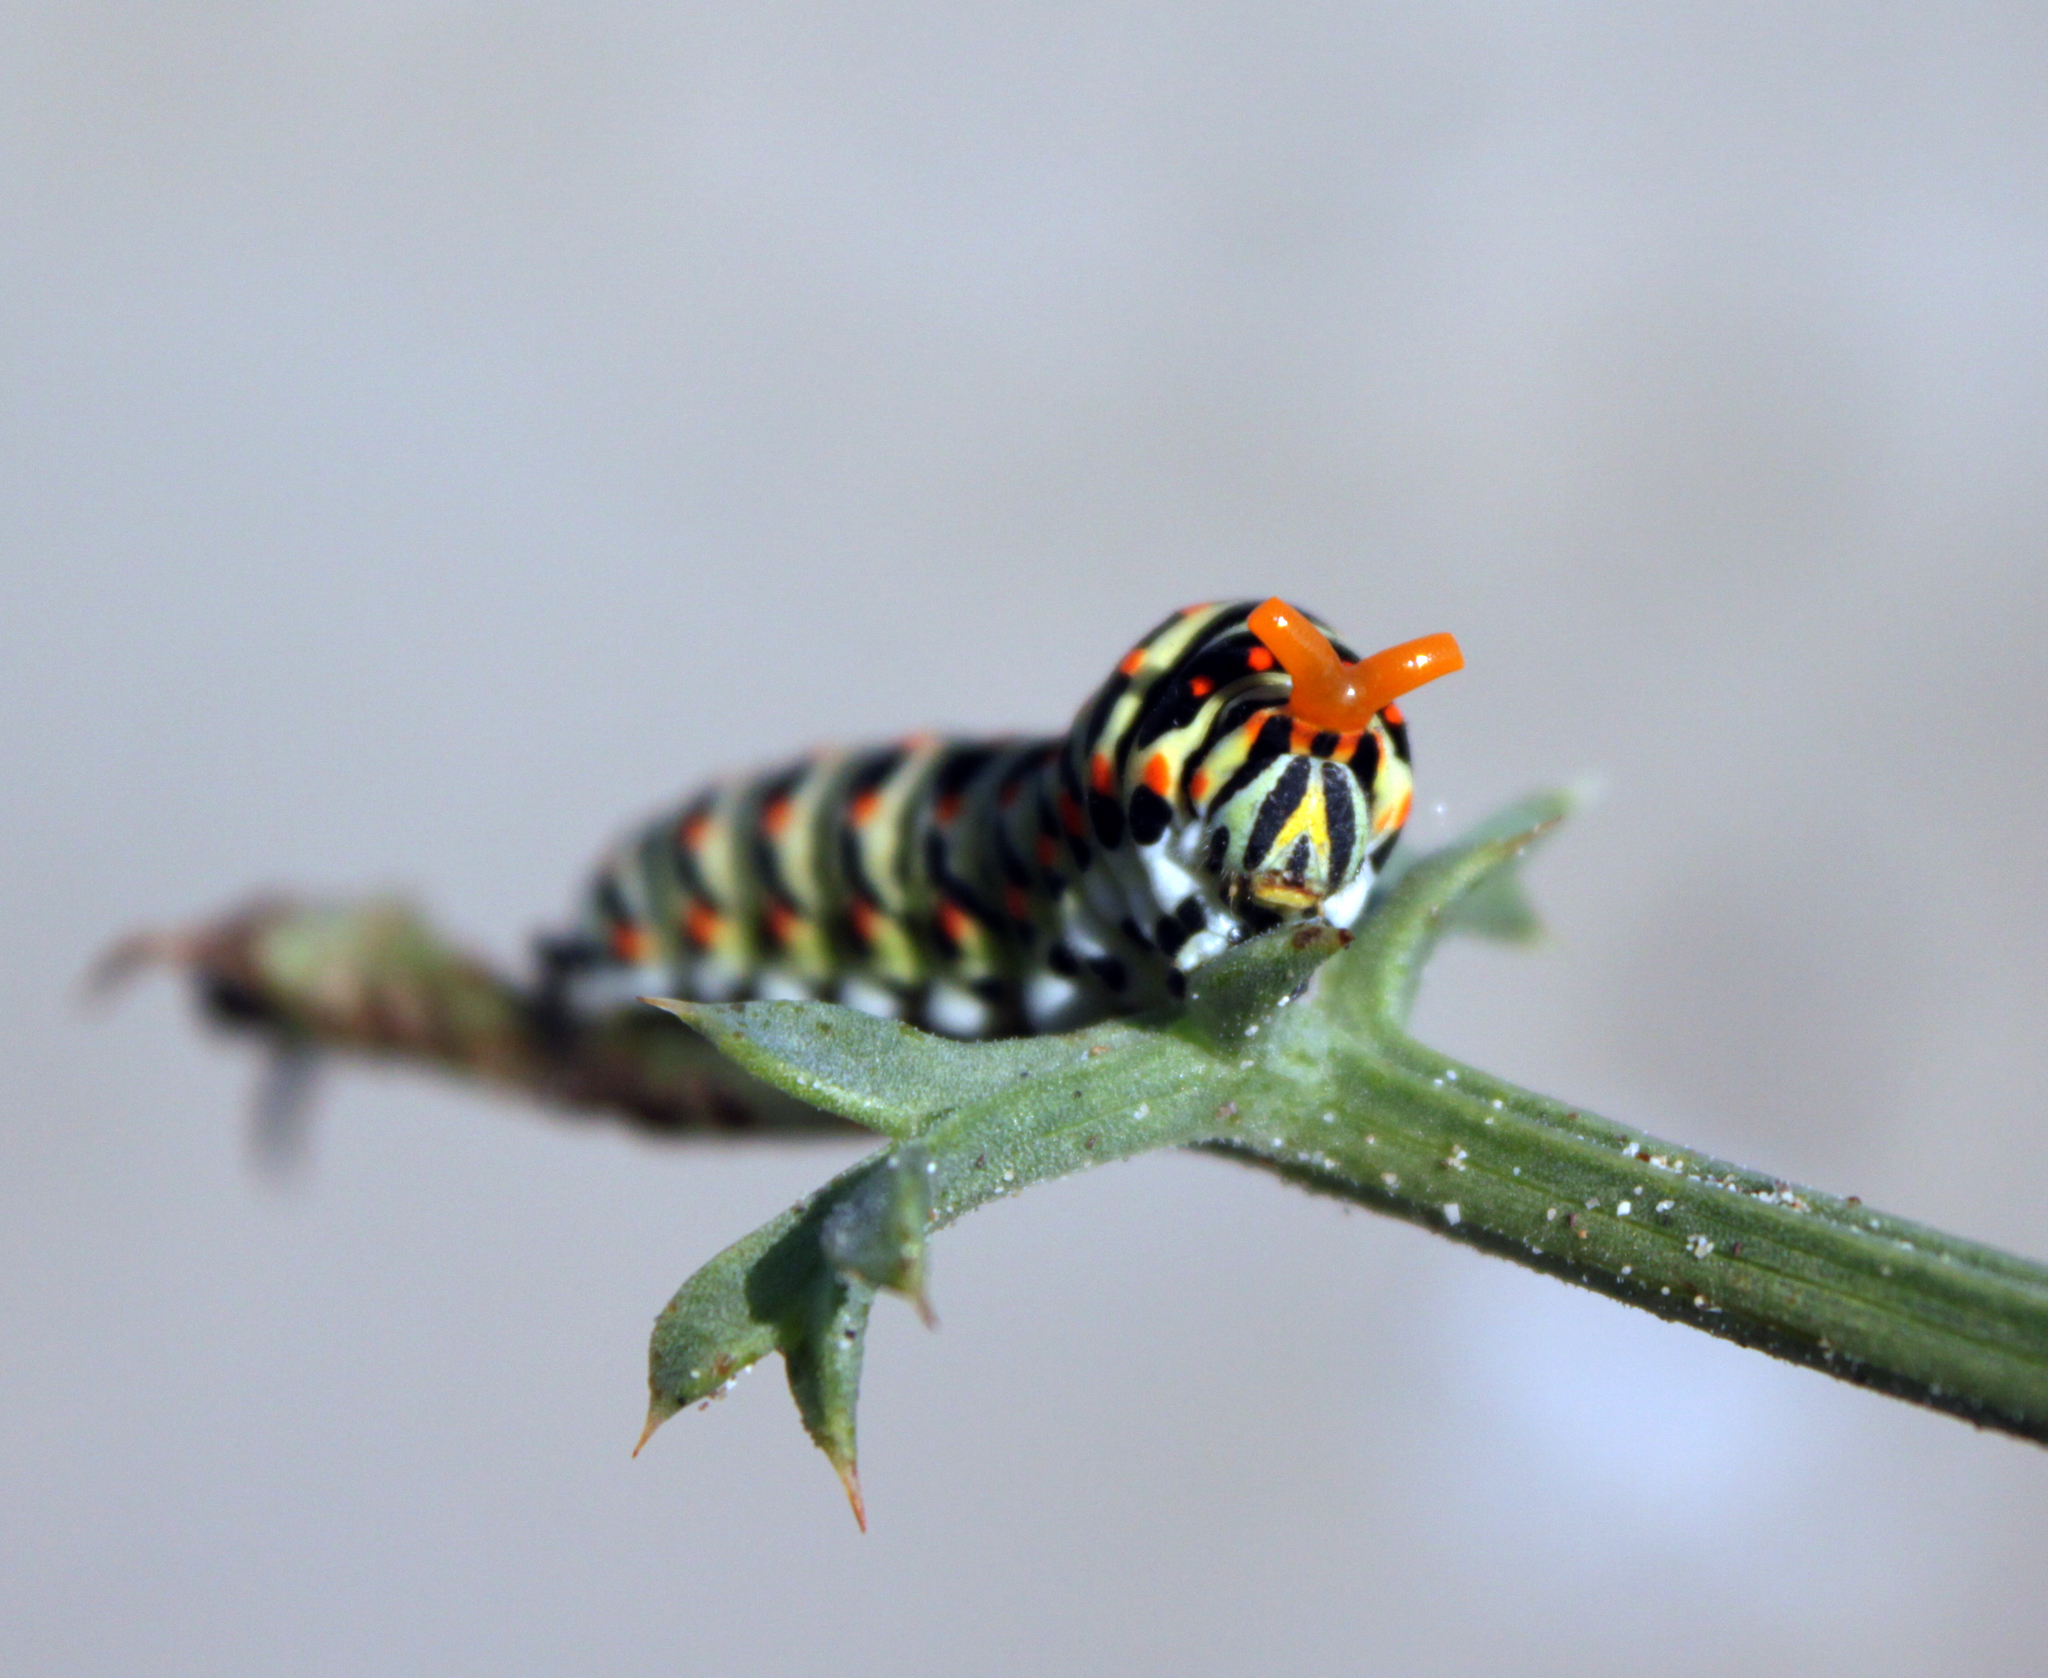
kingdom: Animalia
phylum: Arthropoda
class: Insecta
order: Lepidoptera
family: Papilionidae
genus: Papilio
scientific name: Papilio machaon
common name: Swallowtail
